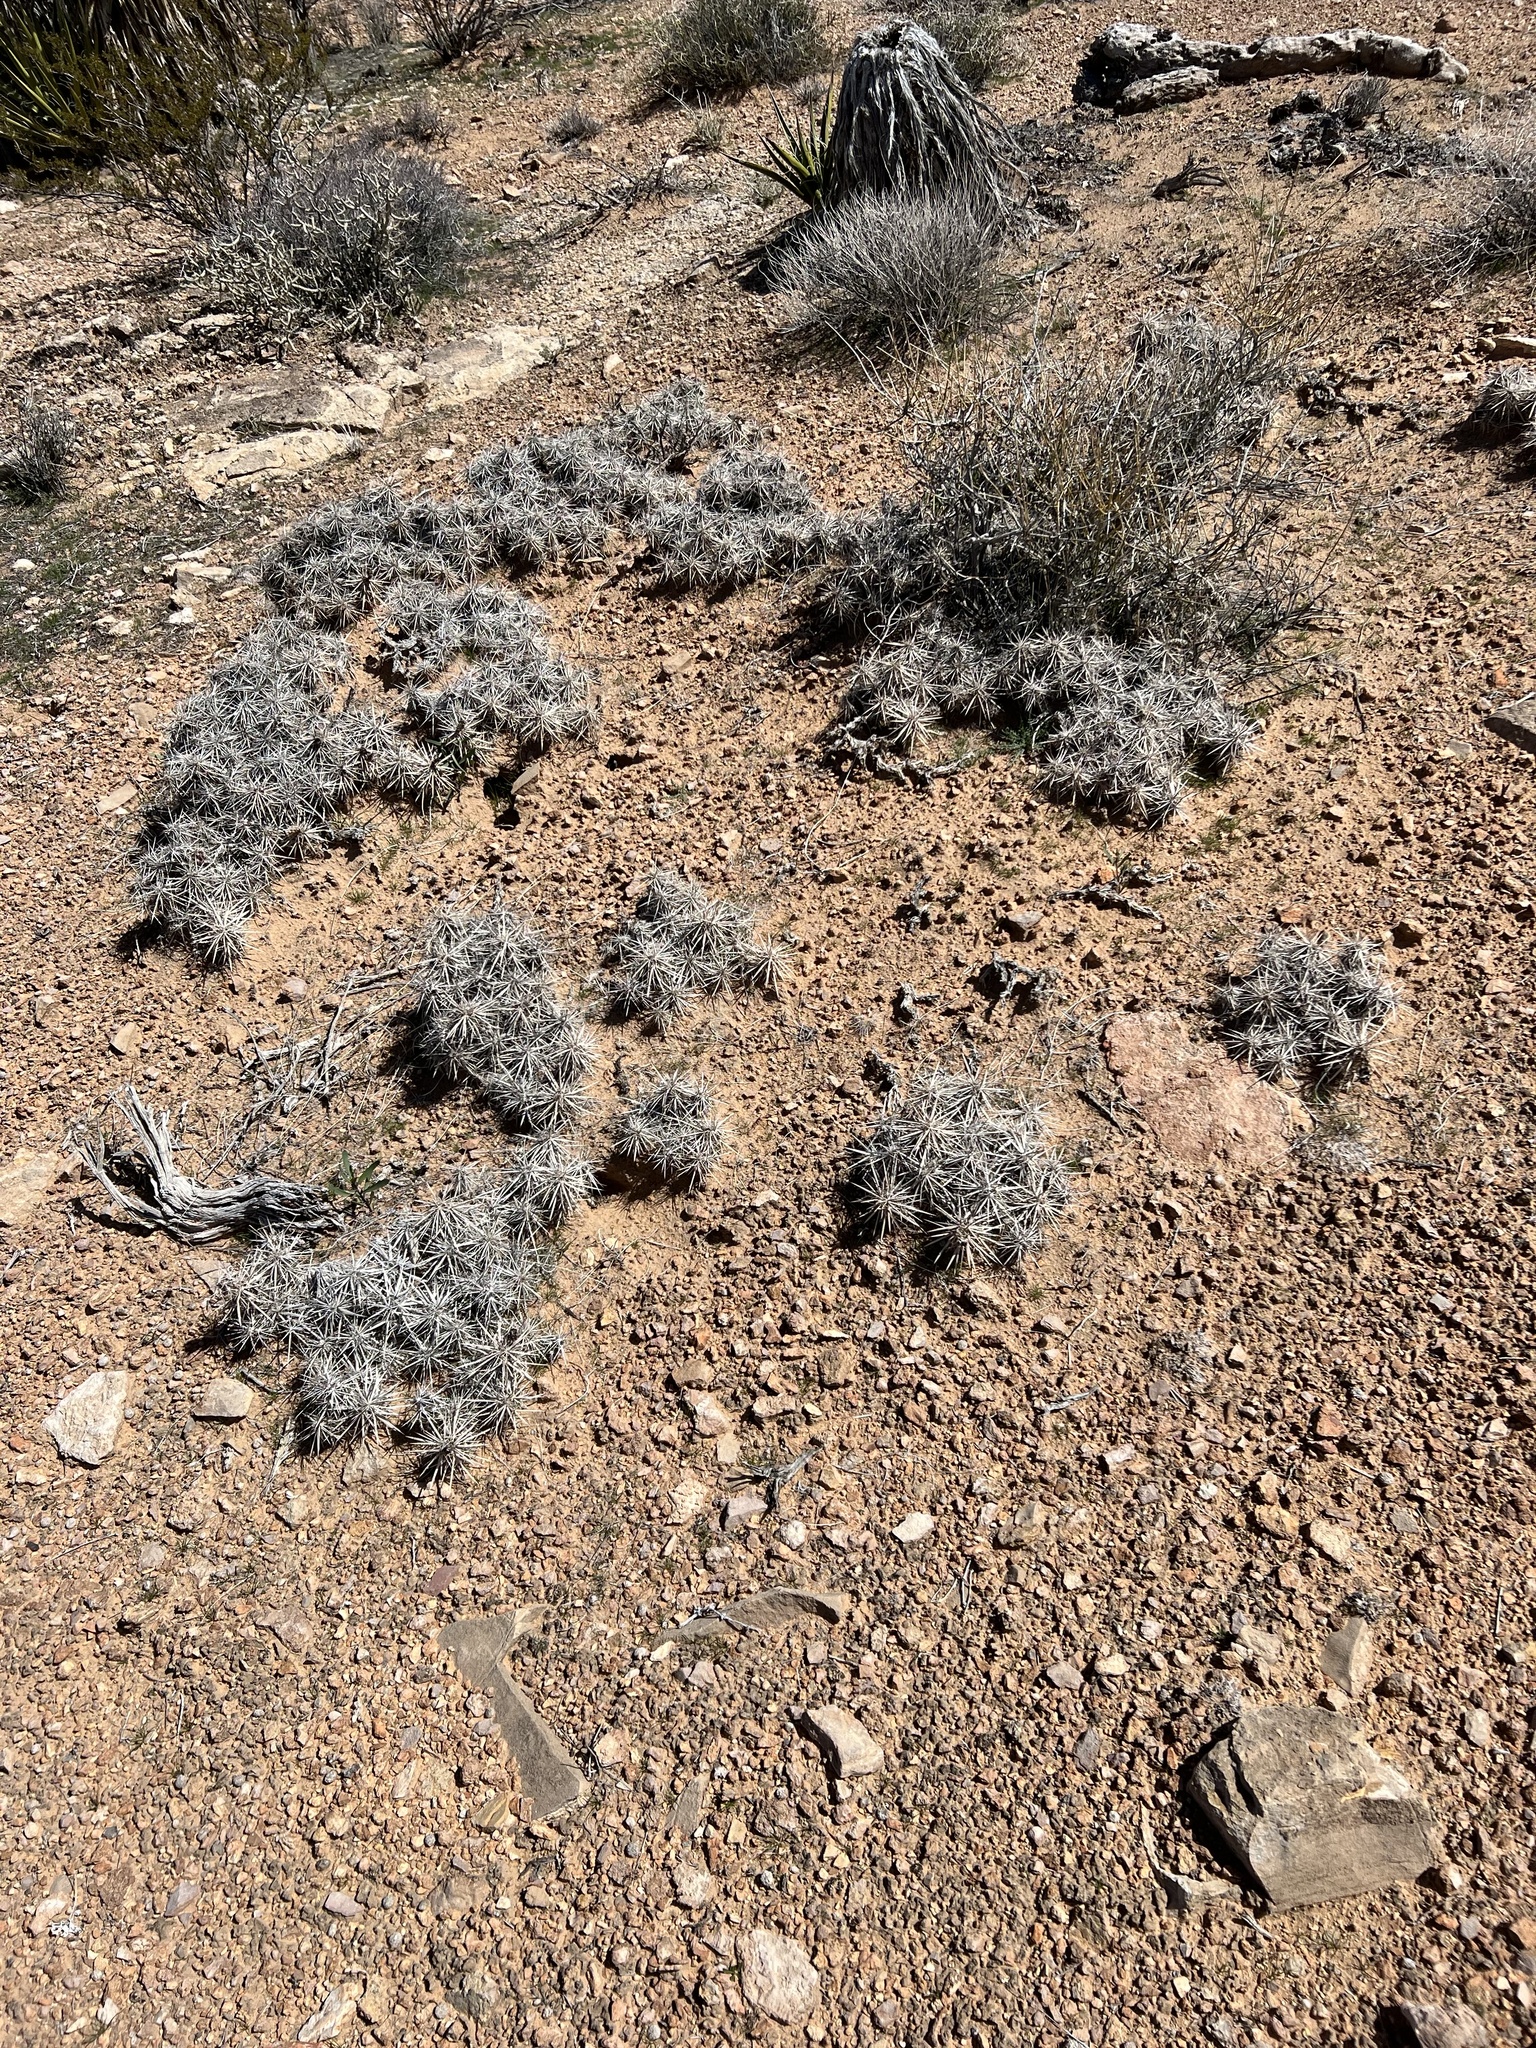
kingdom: Plantae
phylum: Tracheophyta
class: Magnoliopsida
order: Caryophyllales
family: Cactaceae
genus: Grusonia
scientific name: Grusonia parishiorum
